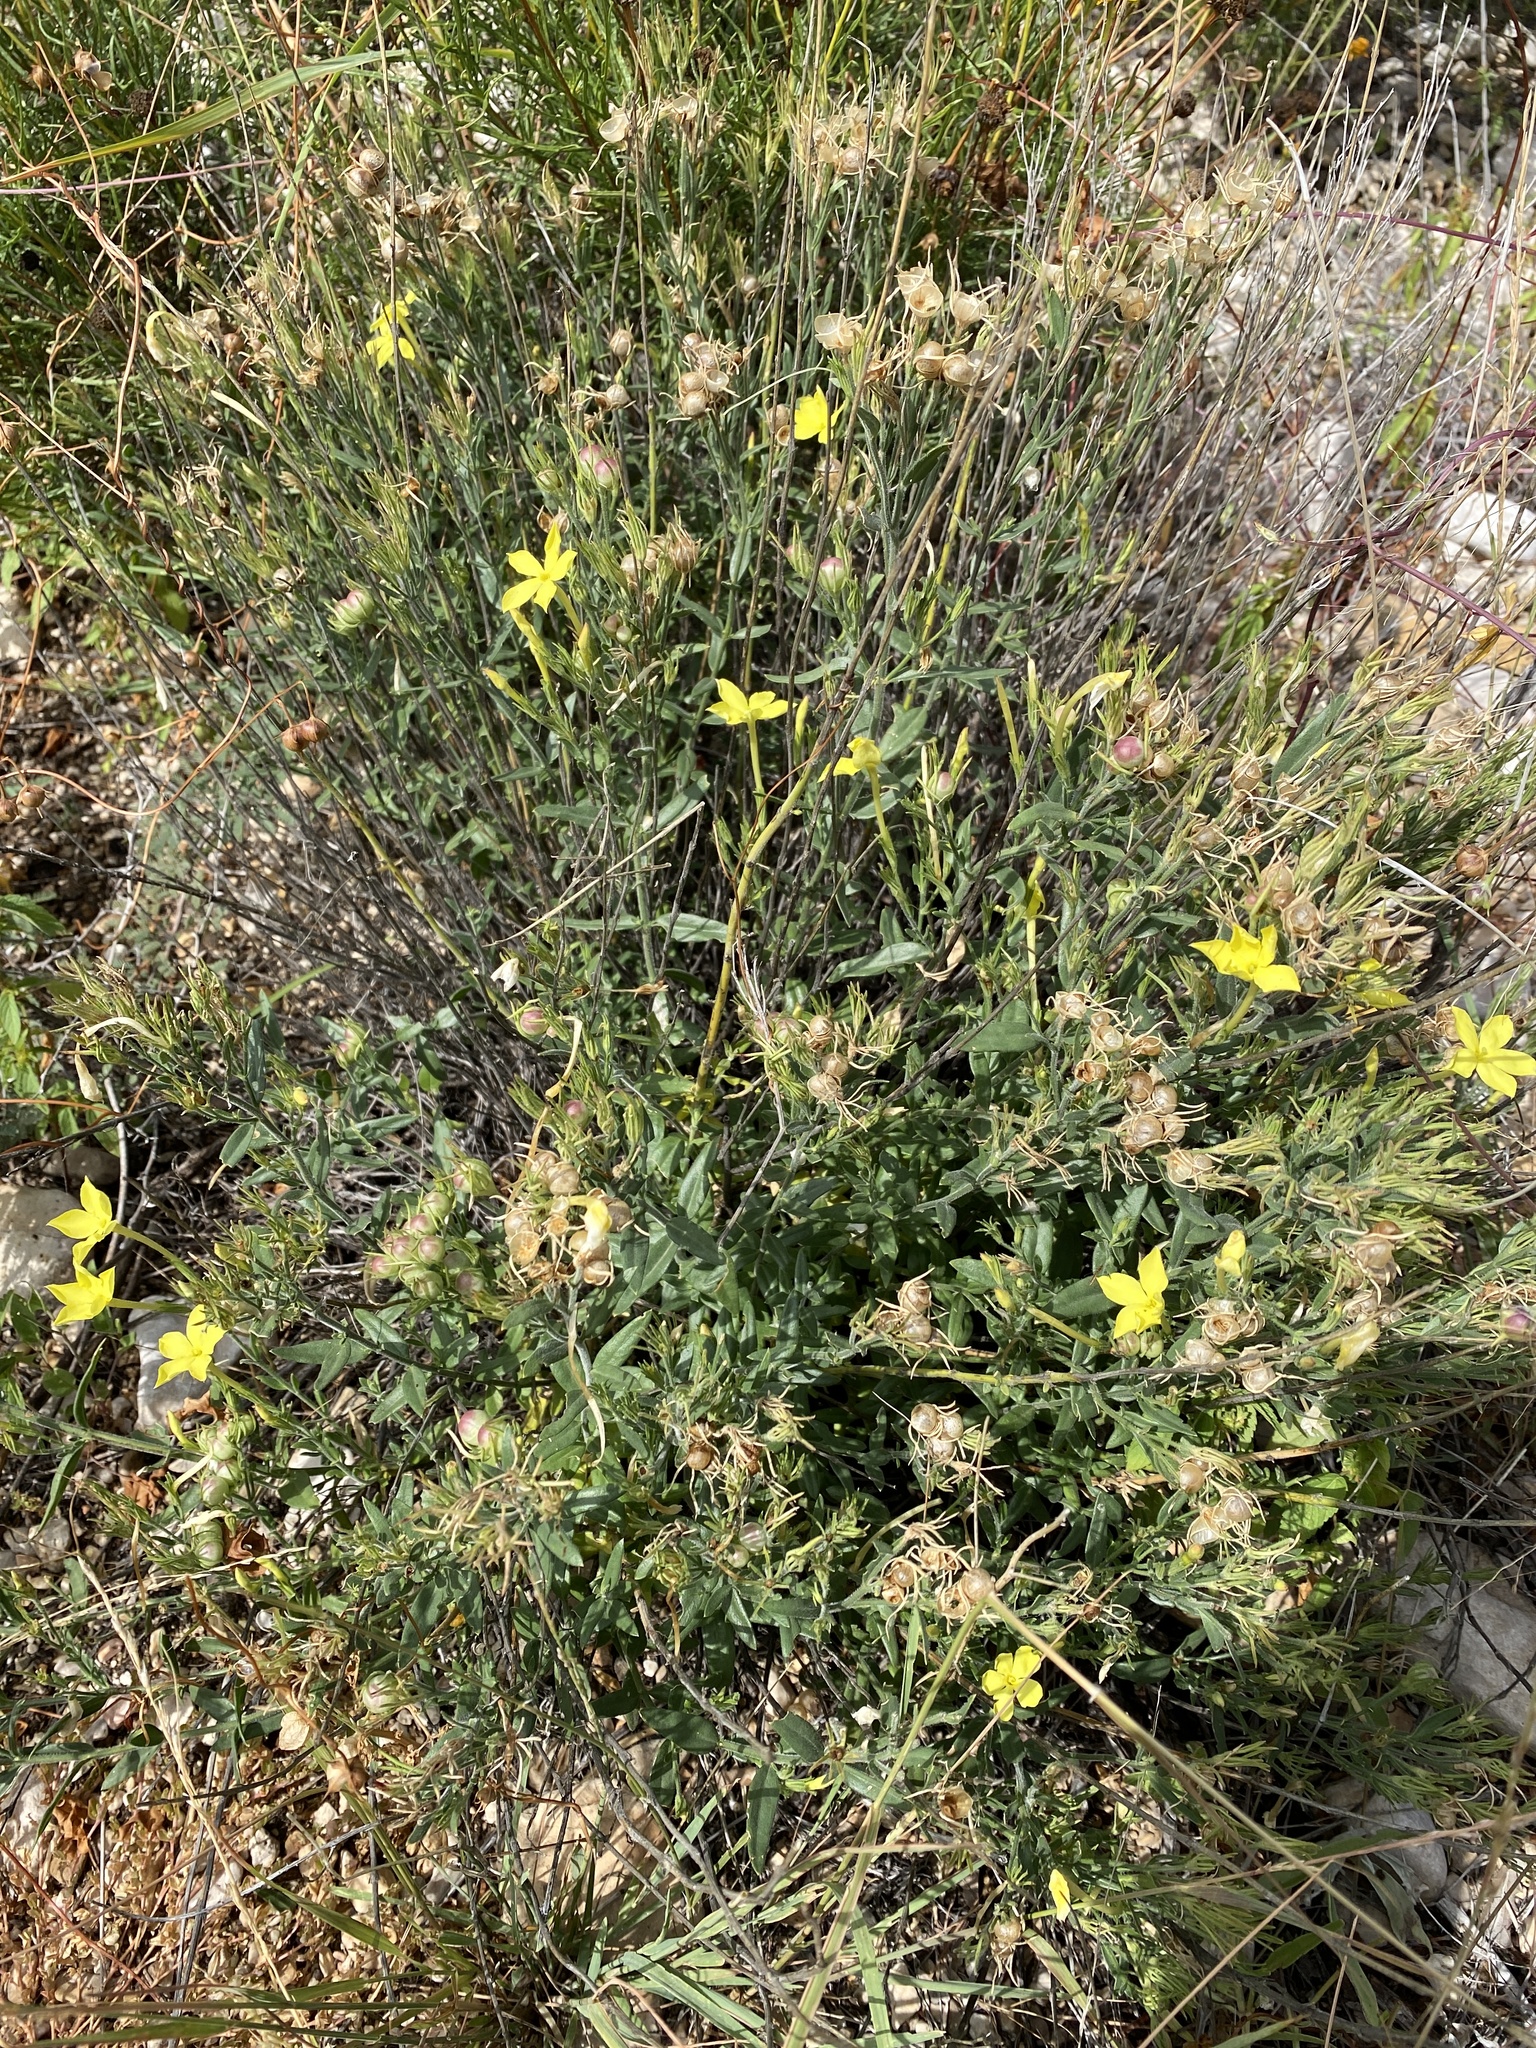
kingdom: Plantae
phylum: Tracheophyta
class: Magnoliopsida
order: Lamiales
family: Oleaceae
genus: Menodora
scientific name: Menodora longiflora
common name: Showy menodora
